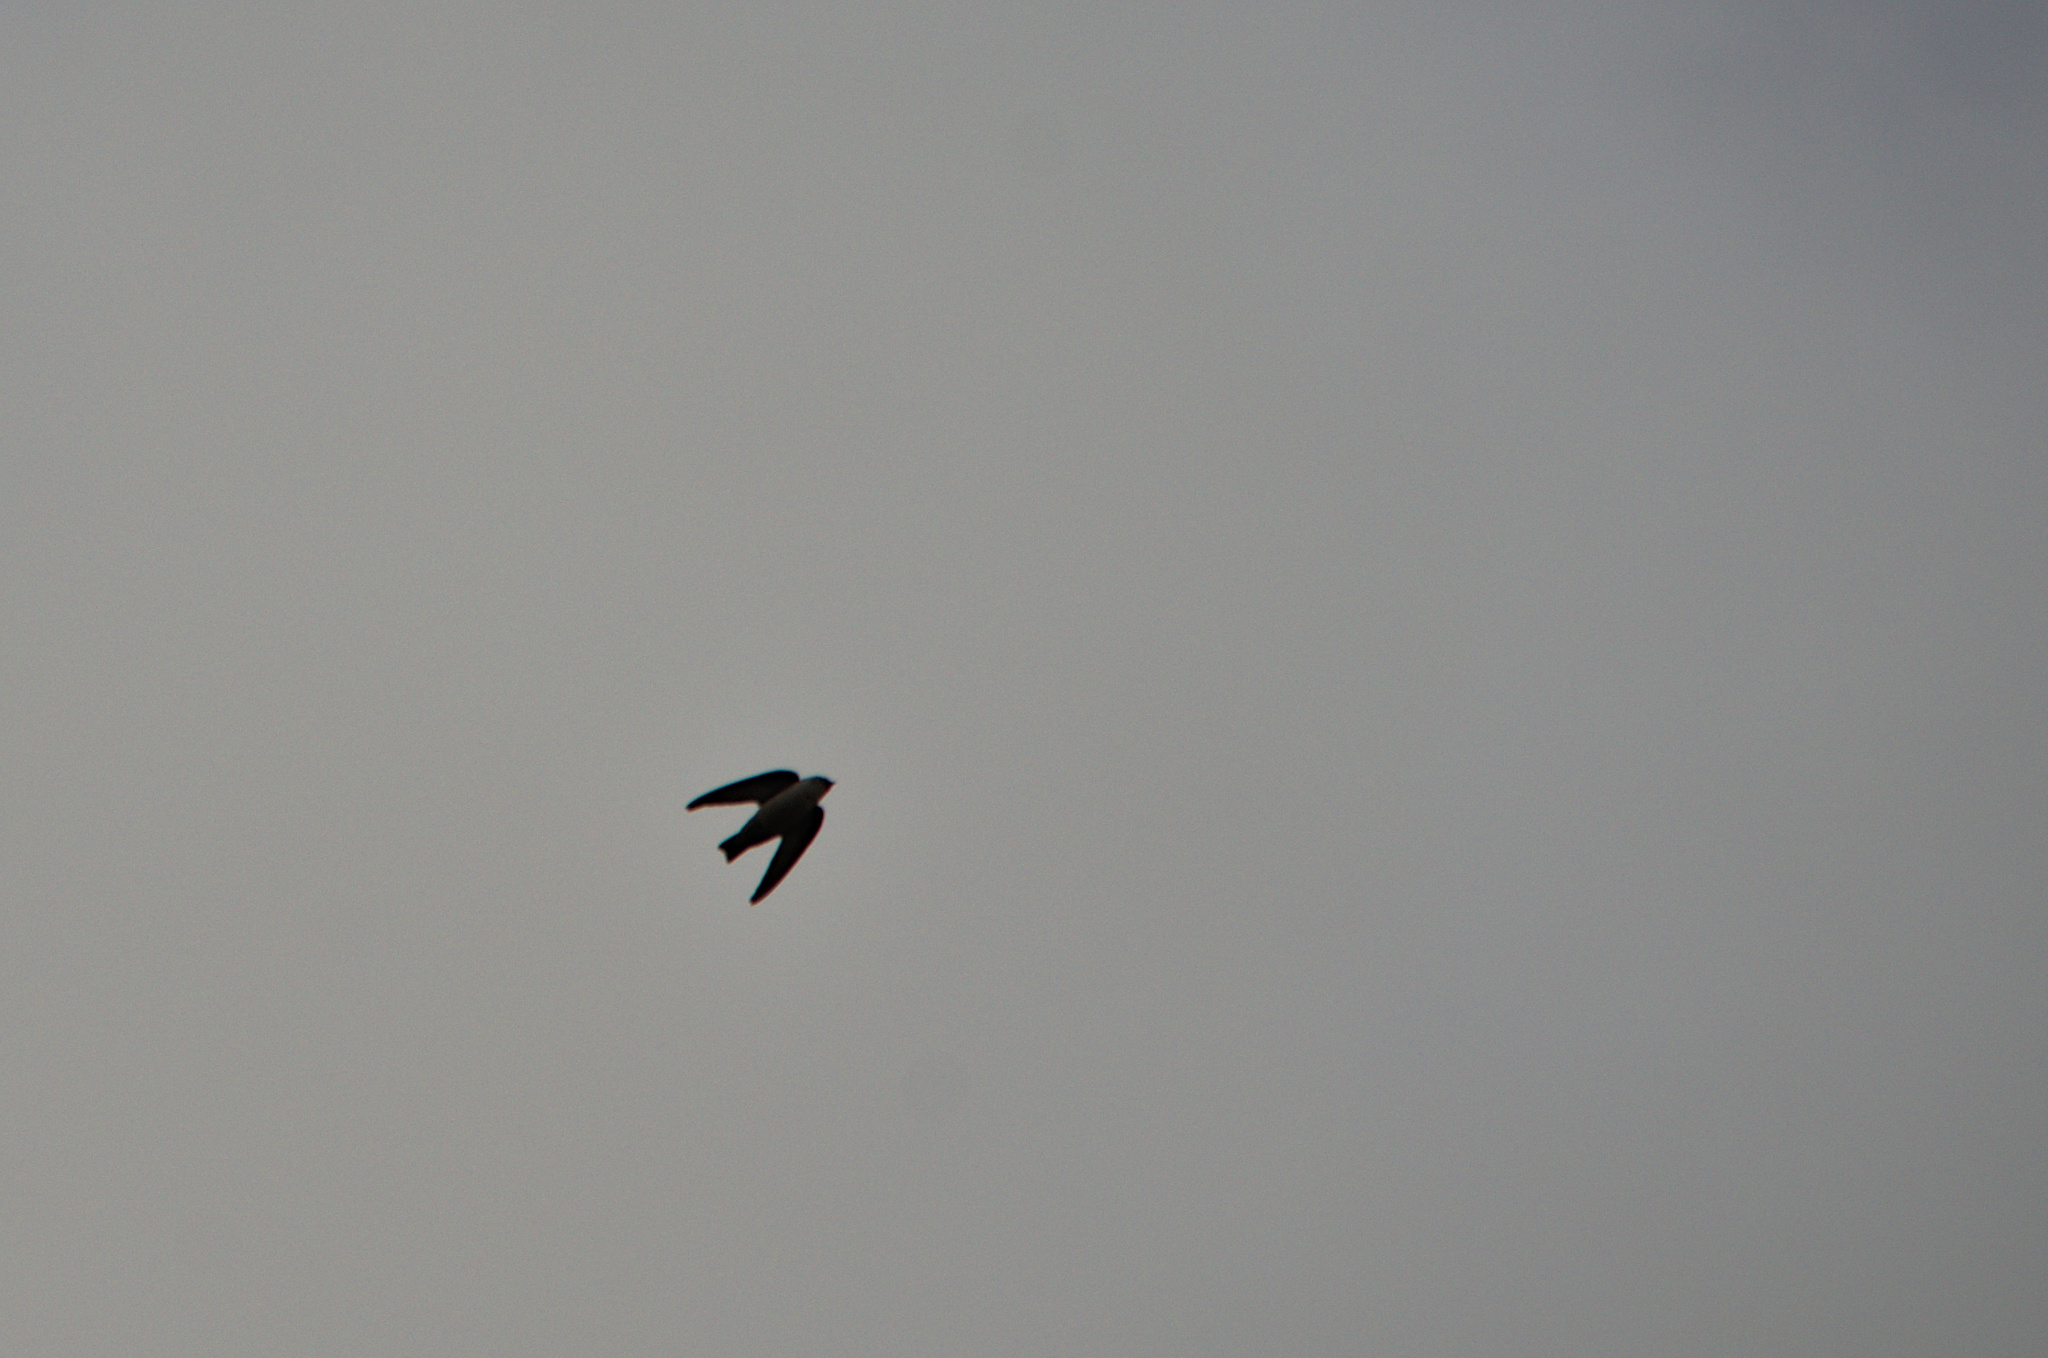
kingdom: Animalia
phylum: Chordata
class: Aves
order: Passeriformes
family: Hirundinidae
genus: Ptyonoprogne
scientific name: Ptyonoprogne rupestris
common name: Eurasian crag martin
